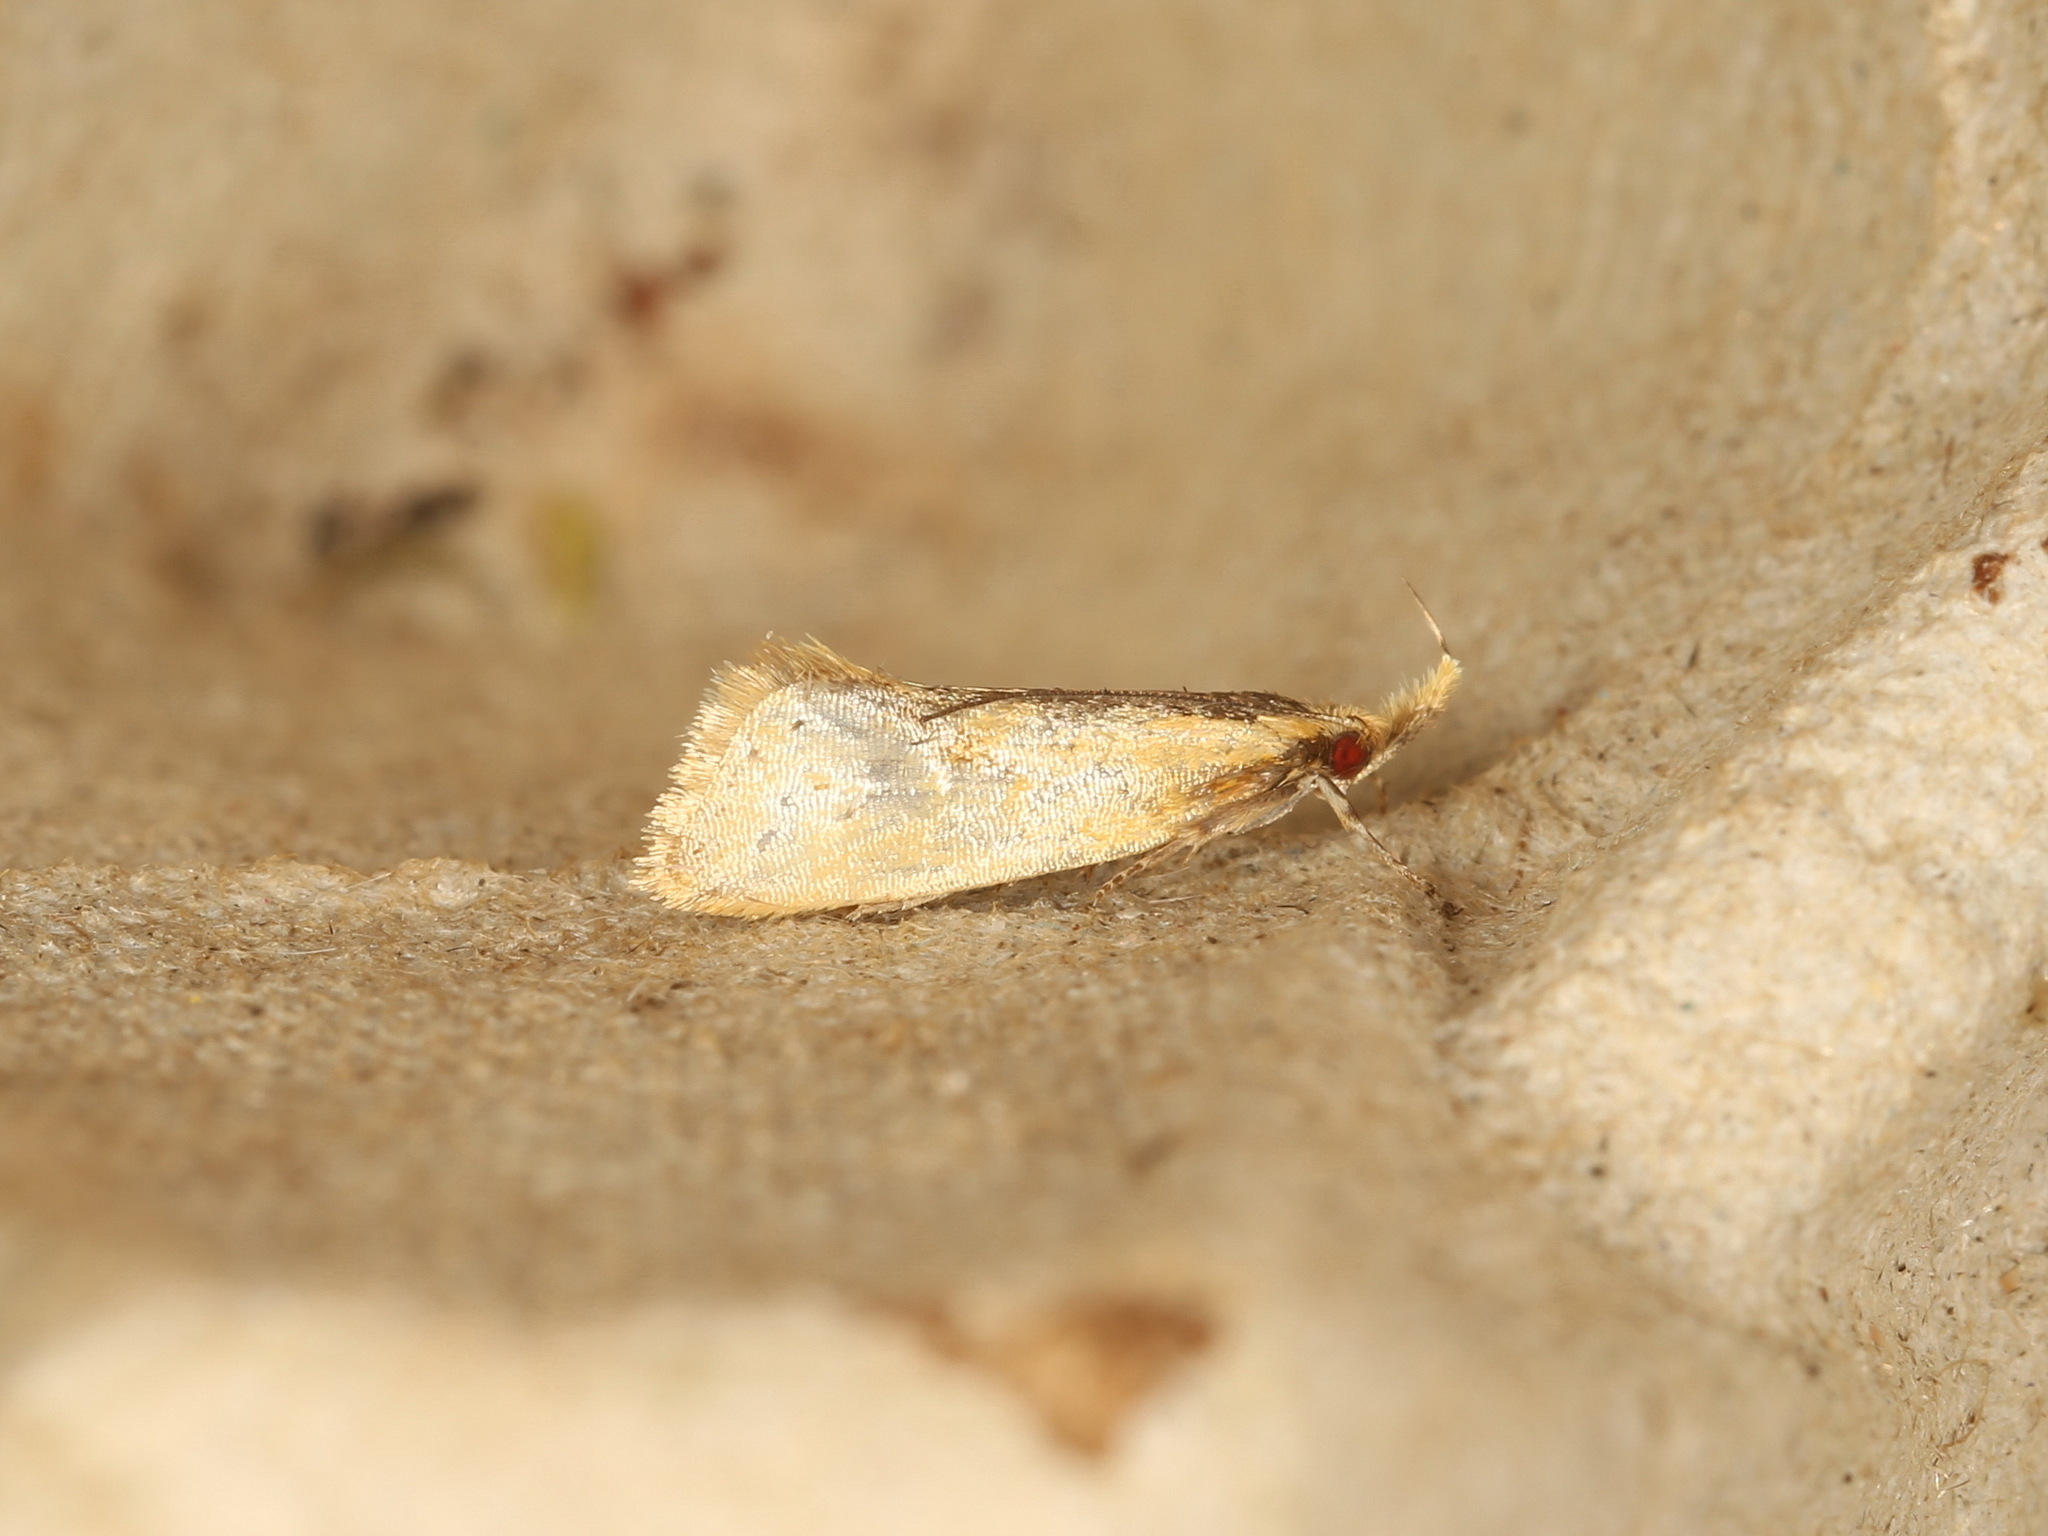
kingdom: Animalia
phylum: Arthropoda
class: Insecta
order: Lepidoptera
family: Oecophoridae
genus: Thema
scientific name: Thema psammoxantha
